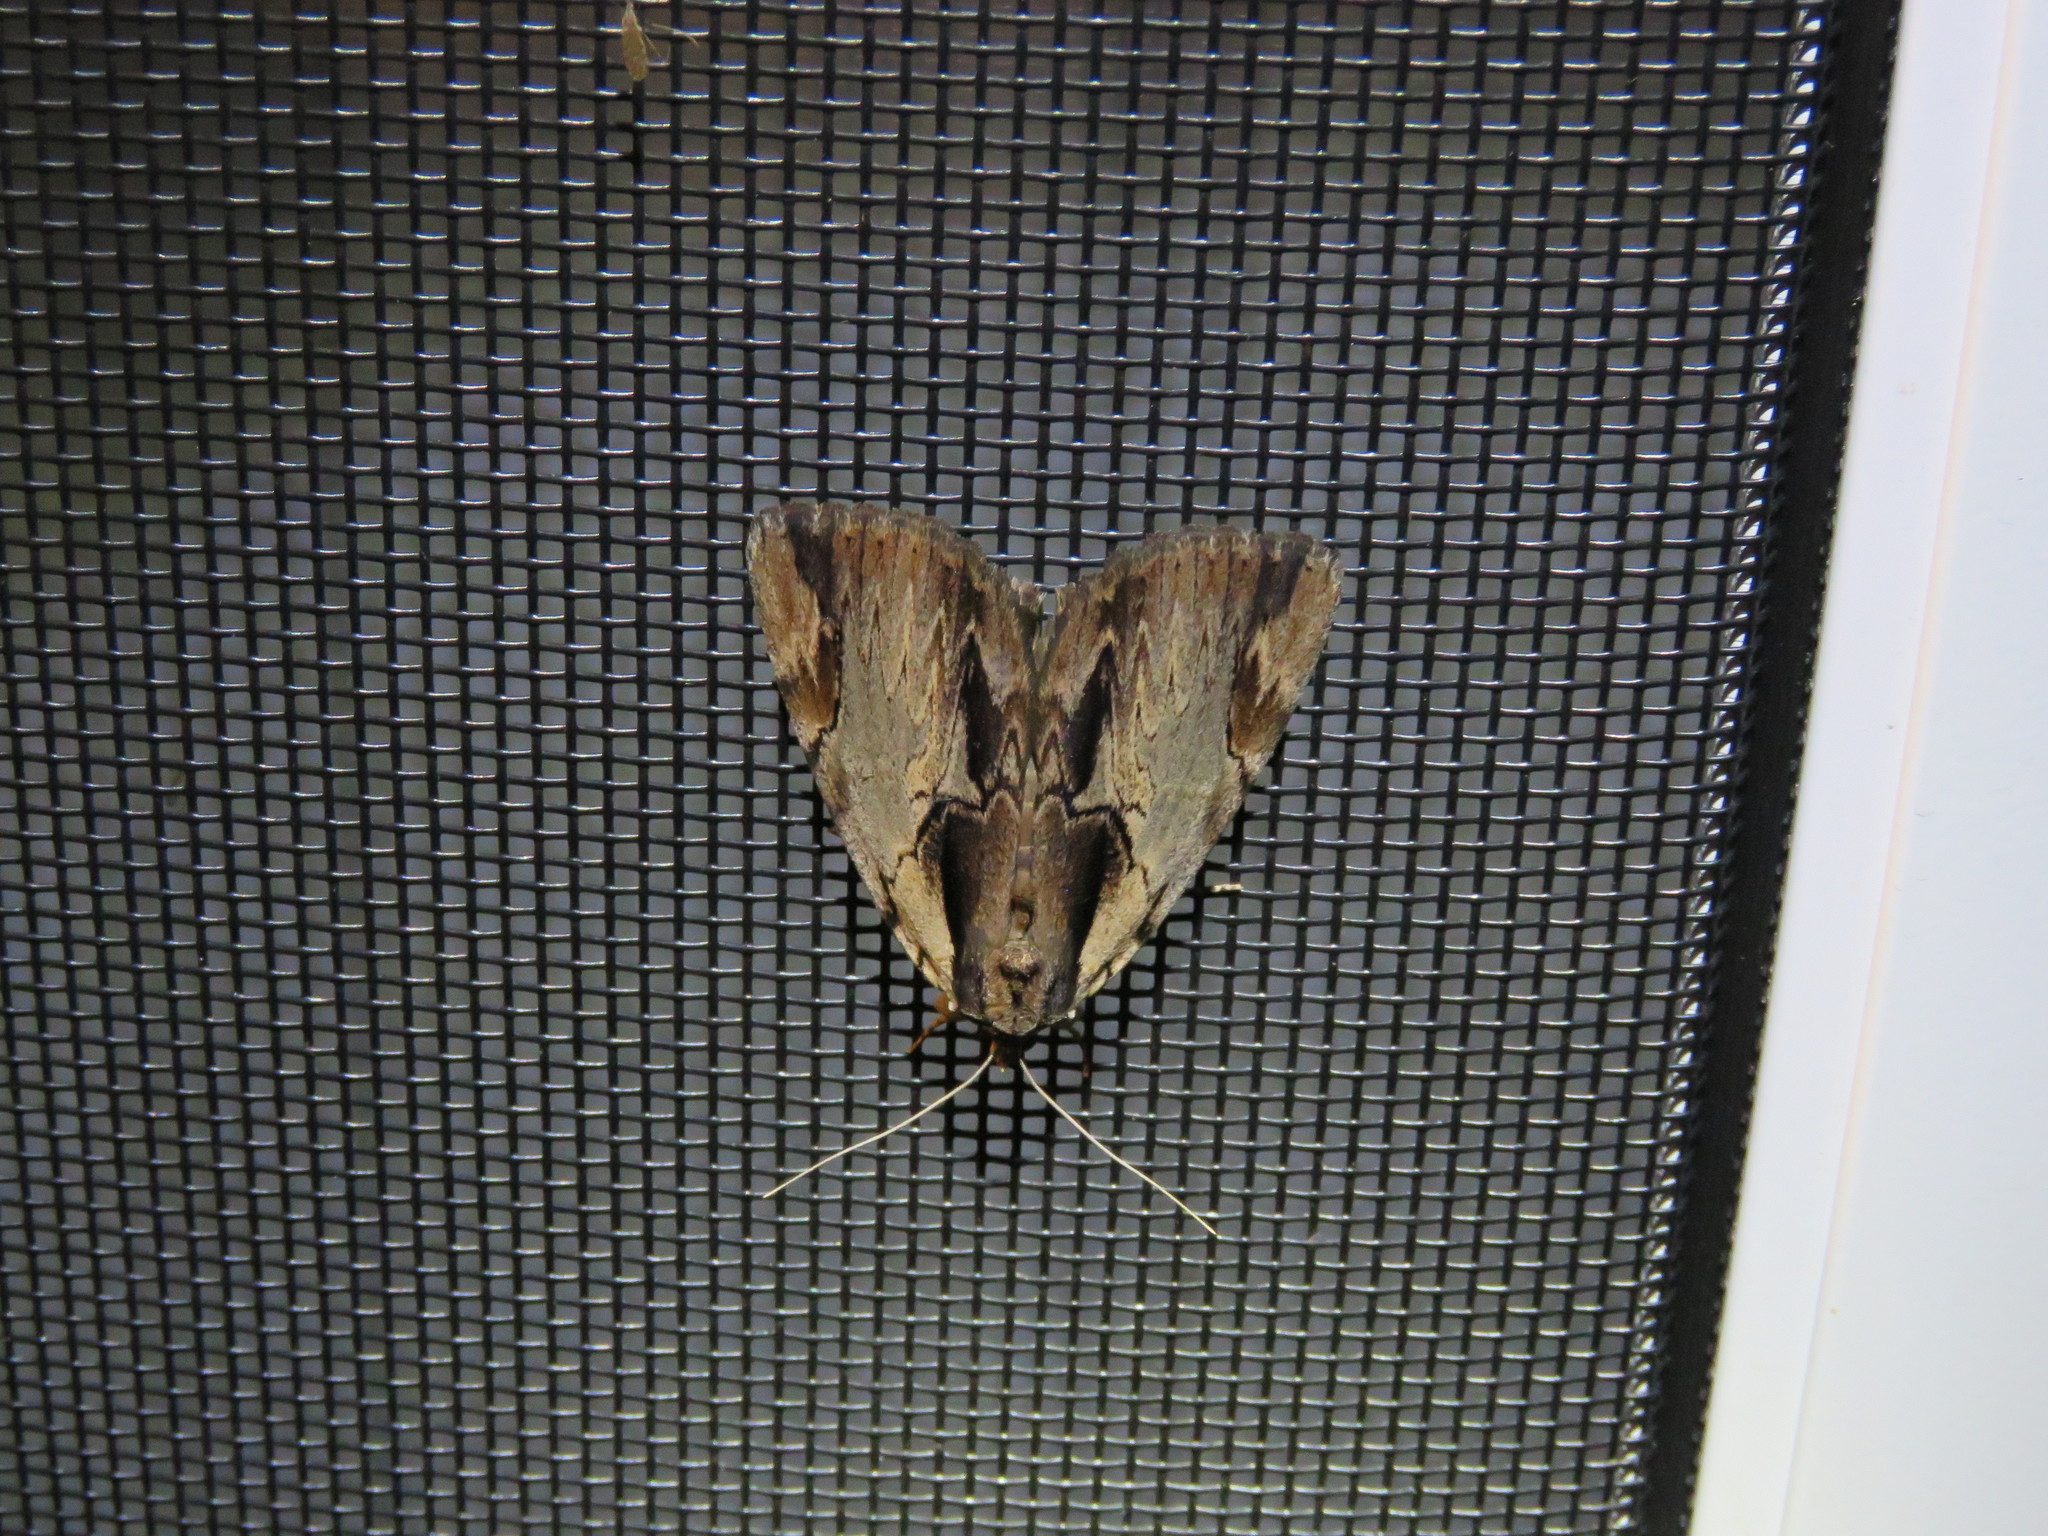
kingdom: Animalia
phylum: Arthropoda
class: Insecta
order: Lepidoptera
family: Erebidae
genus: Catocala
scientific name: Catocala ultronia
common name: Ultronia underwing
